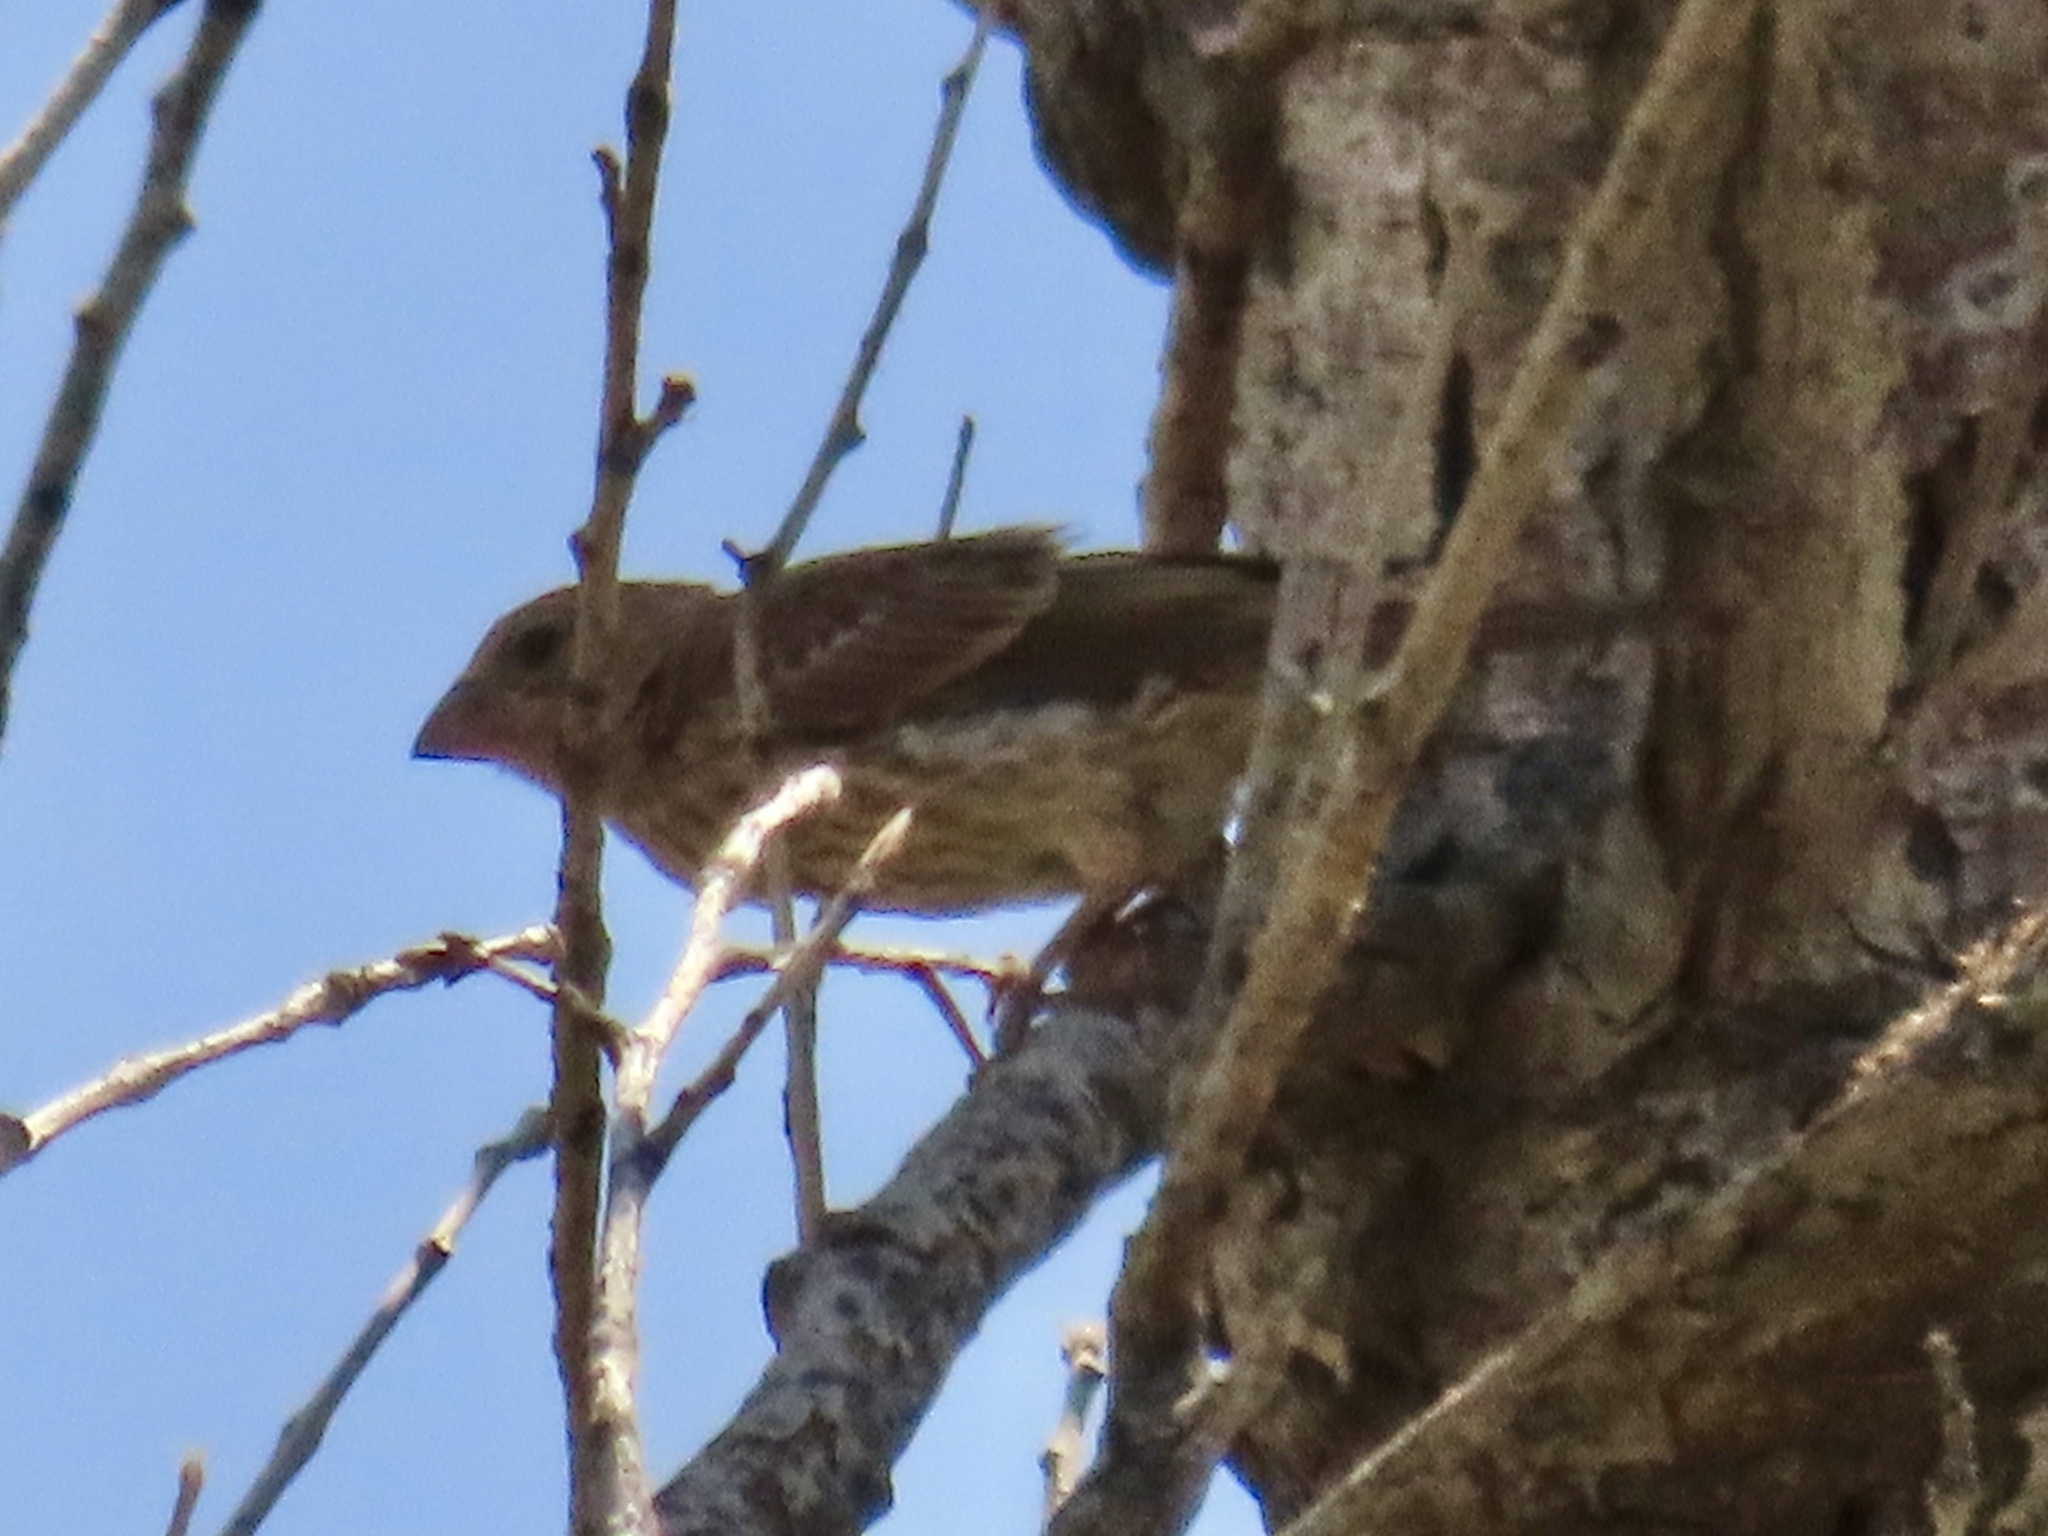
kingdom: Animalia
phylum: Chordata
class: Aves
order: Passeriformes
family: Fringillidae
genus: Haemorhous
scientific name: Haemorhous mexicanus
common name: House finch
